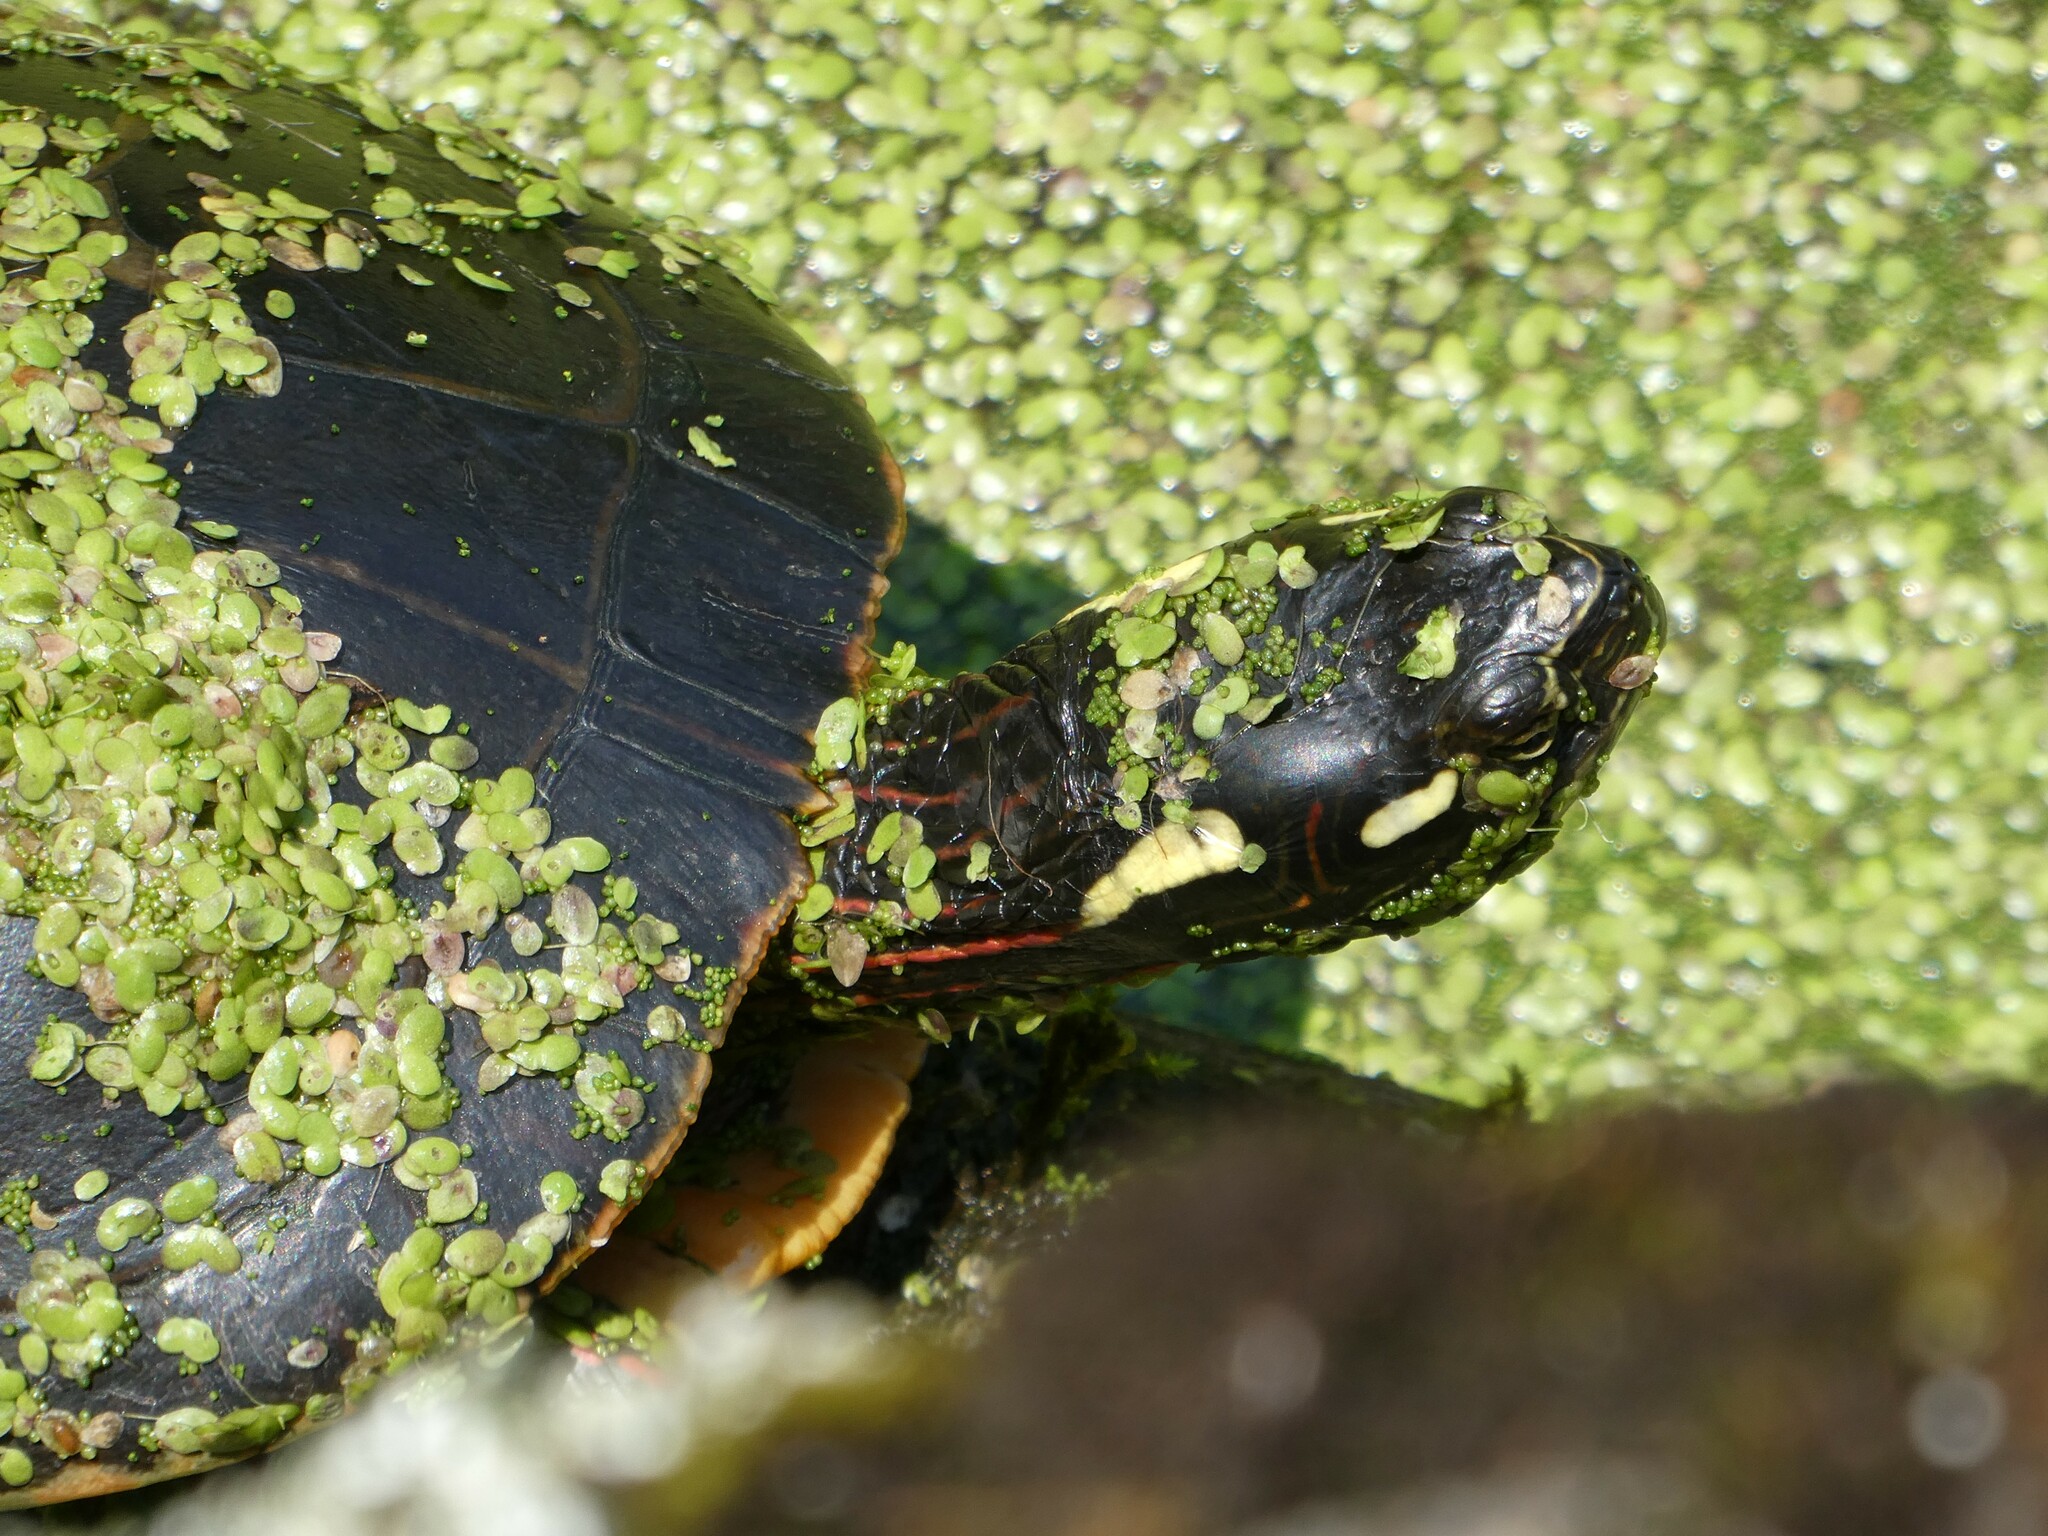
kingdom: Animalia
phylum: Chordata
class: Testudines
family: Emydidae
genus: Chrysemys
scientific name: Chrysemys picta
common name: Painted turtle
